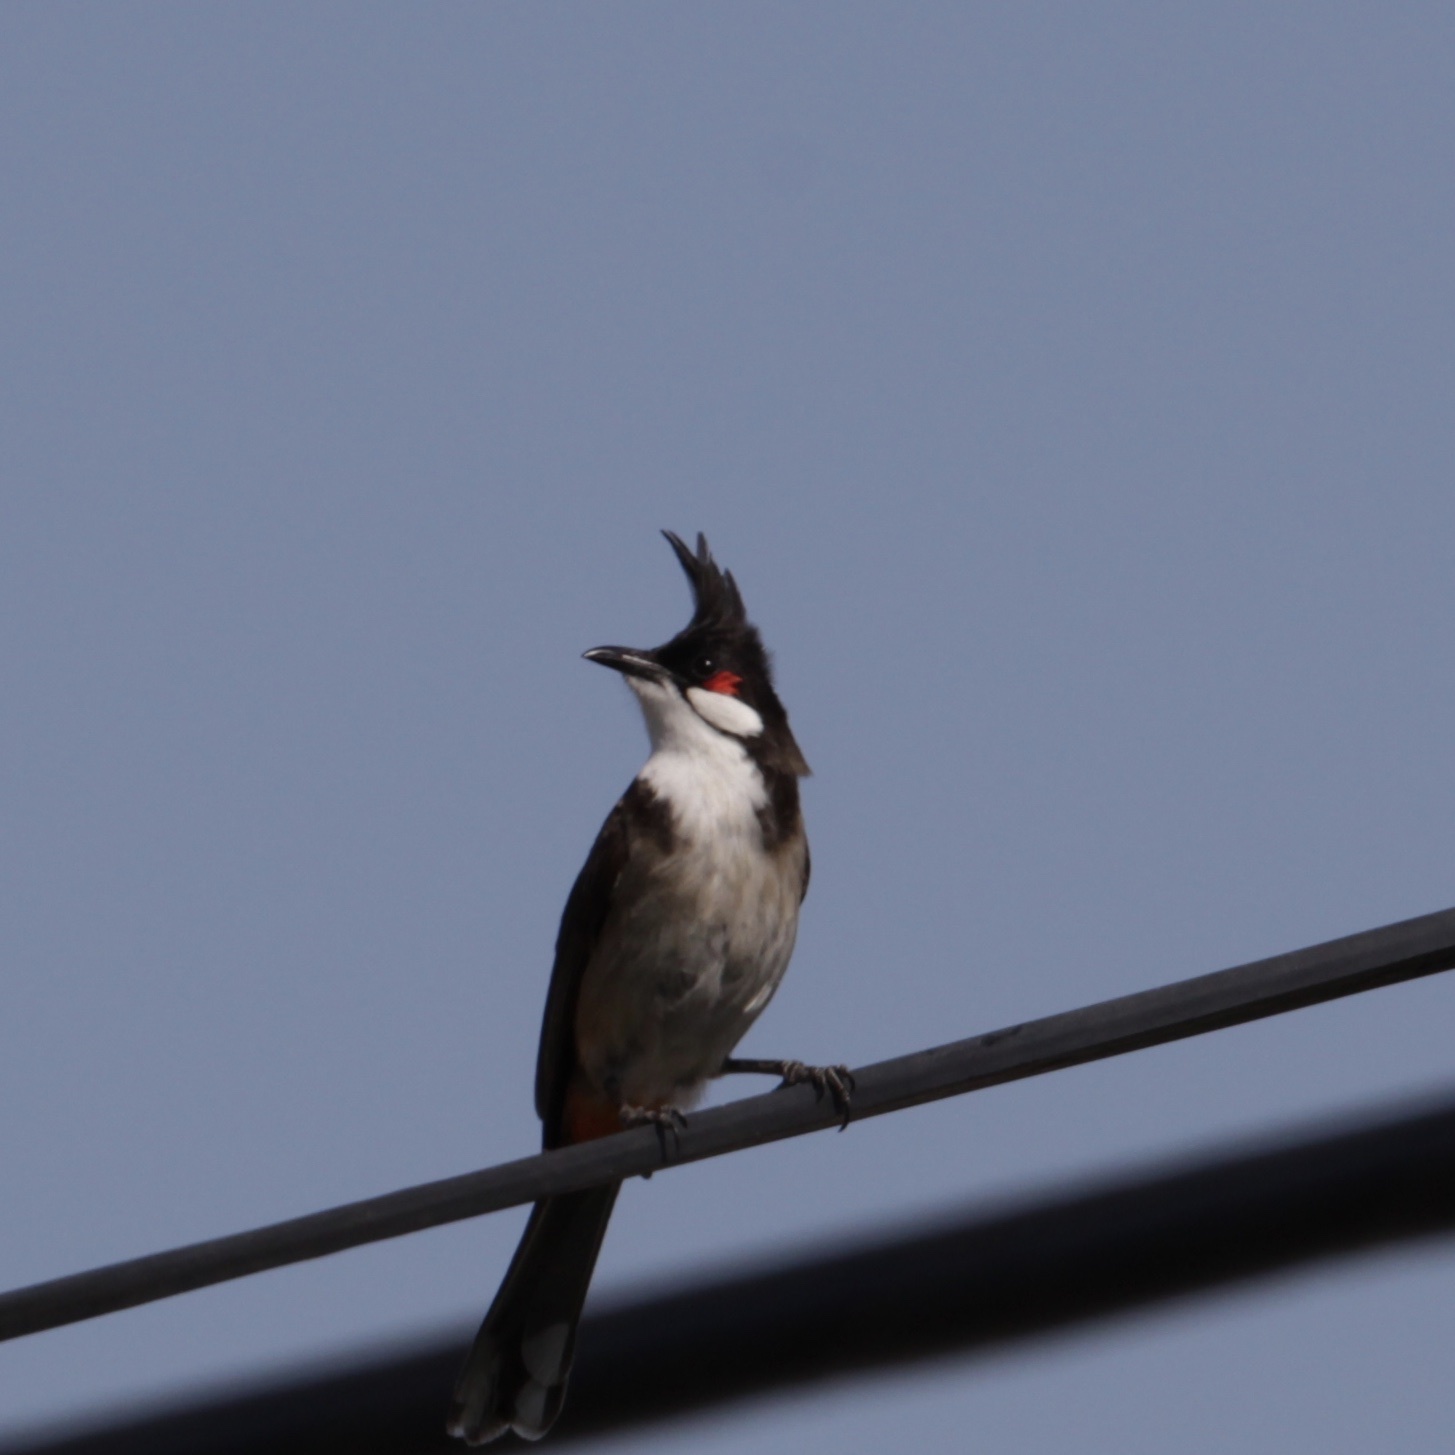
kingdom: Animalia
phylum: Chordata
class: Aves
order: Passeriformes
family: Pycnonotidae
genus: Pycnonotus
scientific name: Pycnonotus jocosus
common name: Red-whiskered bulbul
